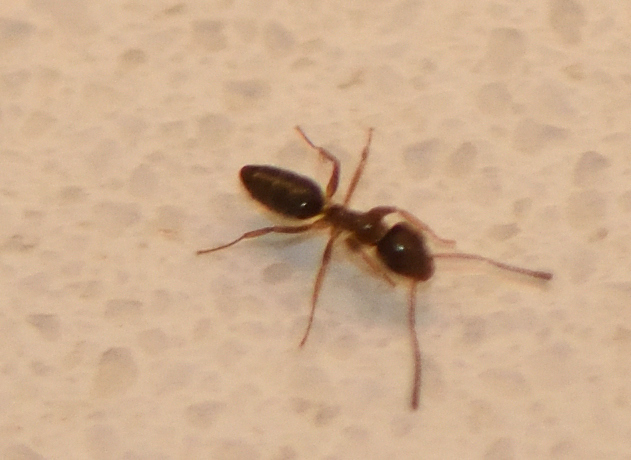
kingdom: Animalia
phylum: Arthropoda
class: Insecta
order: Hymenoptera
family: Formicidae
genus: Tapinoma
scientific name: Tapinoma sessile
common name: Odorous house ant
